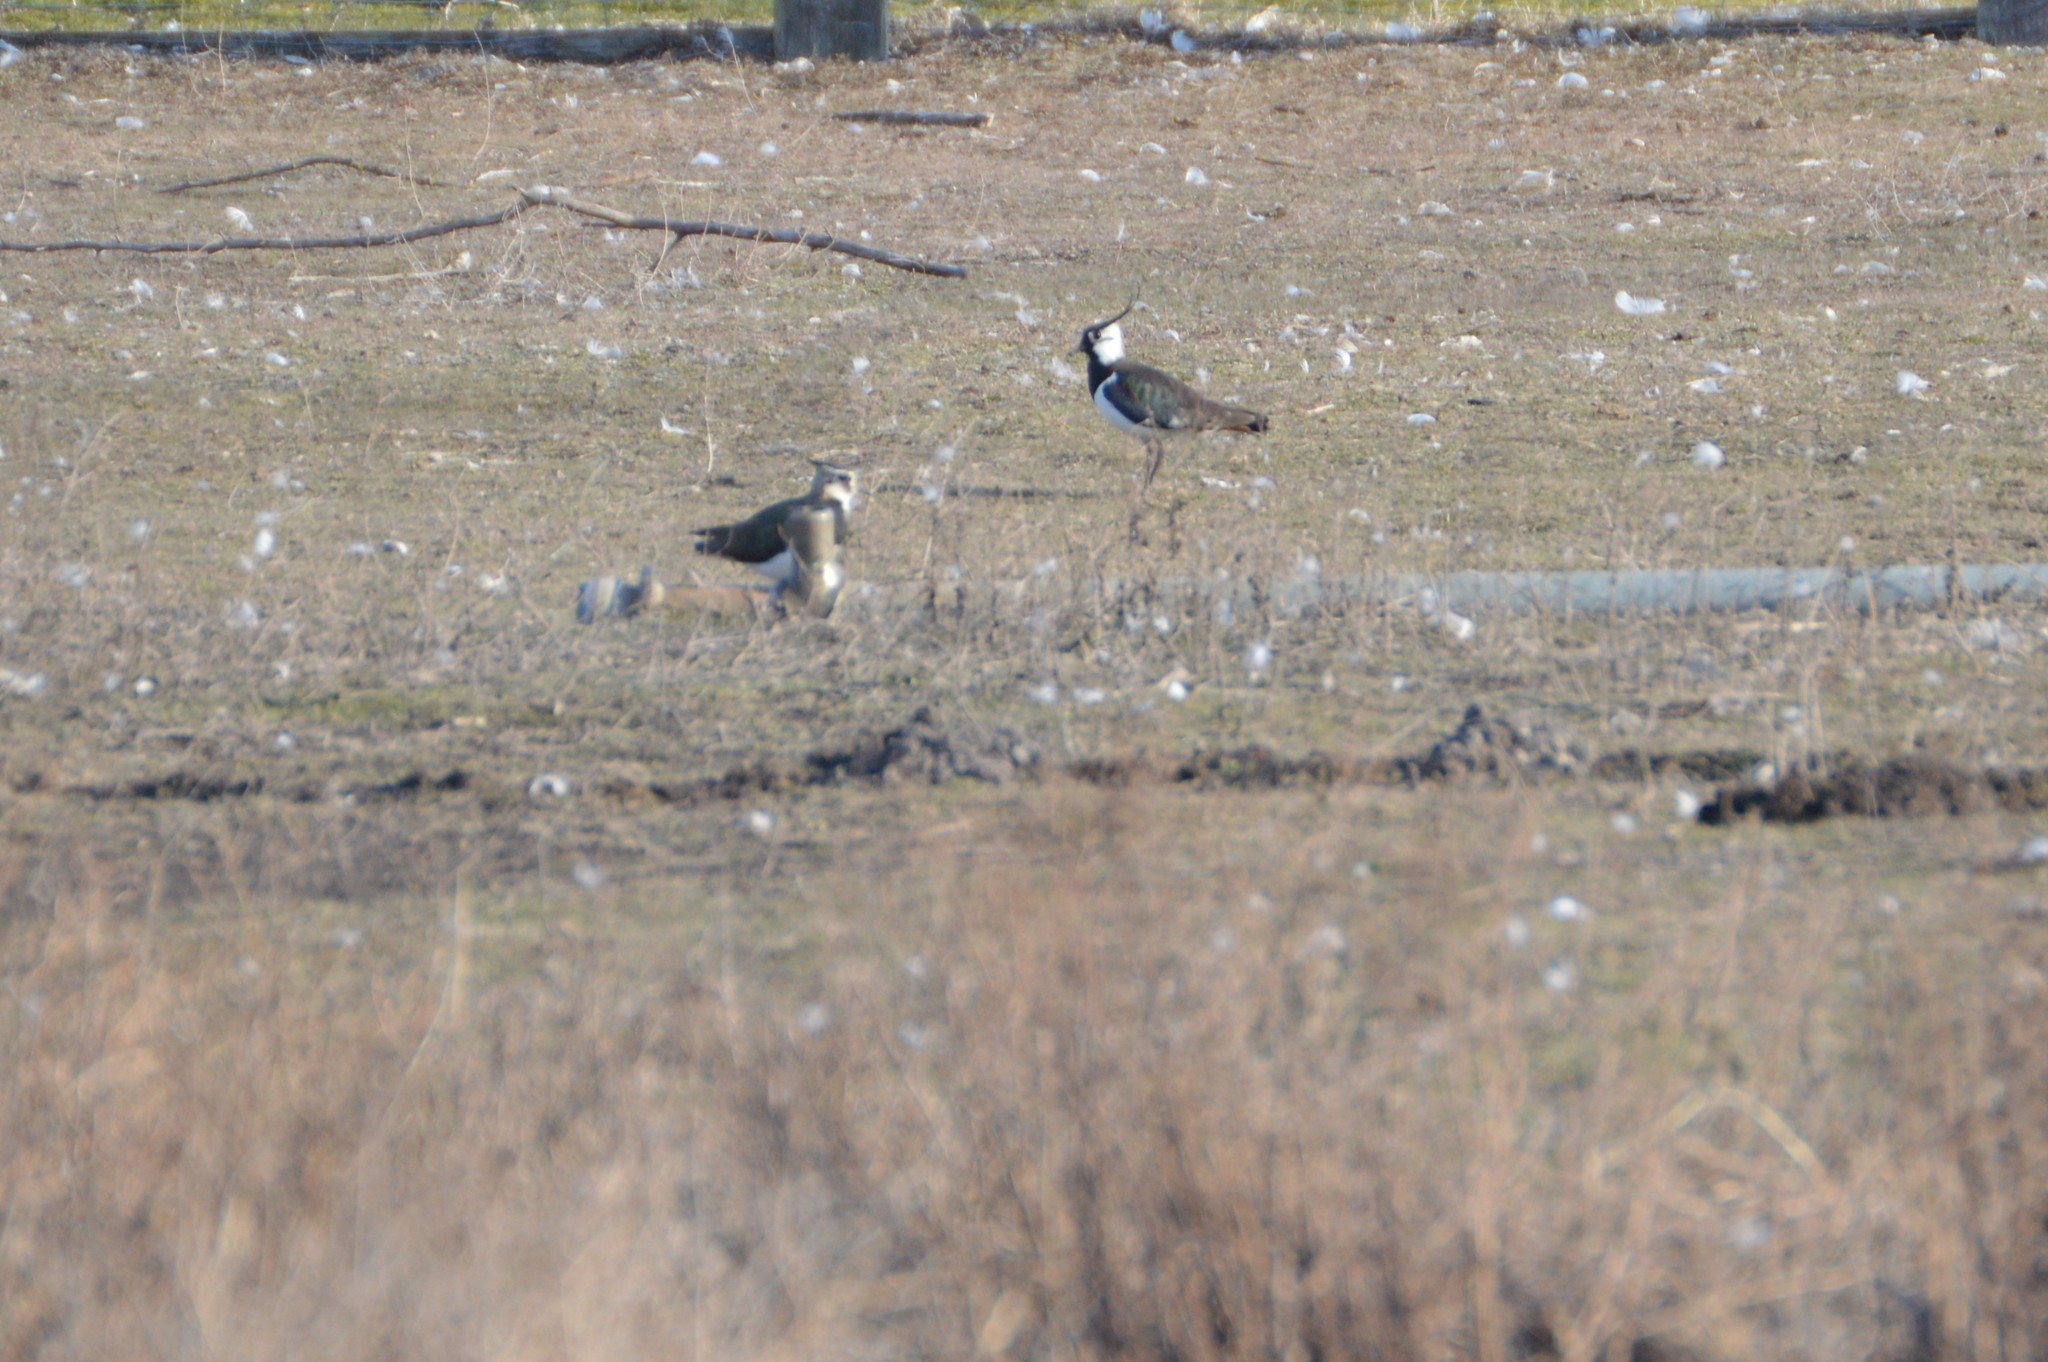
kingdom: Animalia
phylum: Chordata
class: Aves
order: Charadriiformes
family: Charadriidae
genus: Vanellus
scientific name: Vanellus vanellus
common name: Northern lapwing
